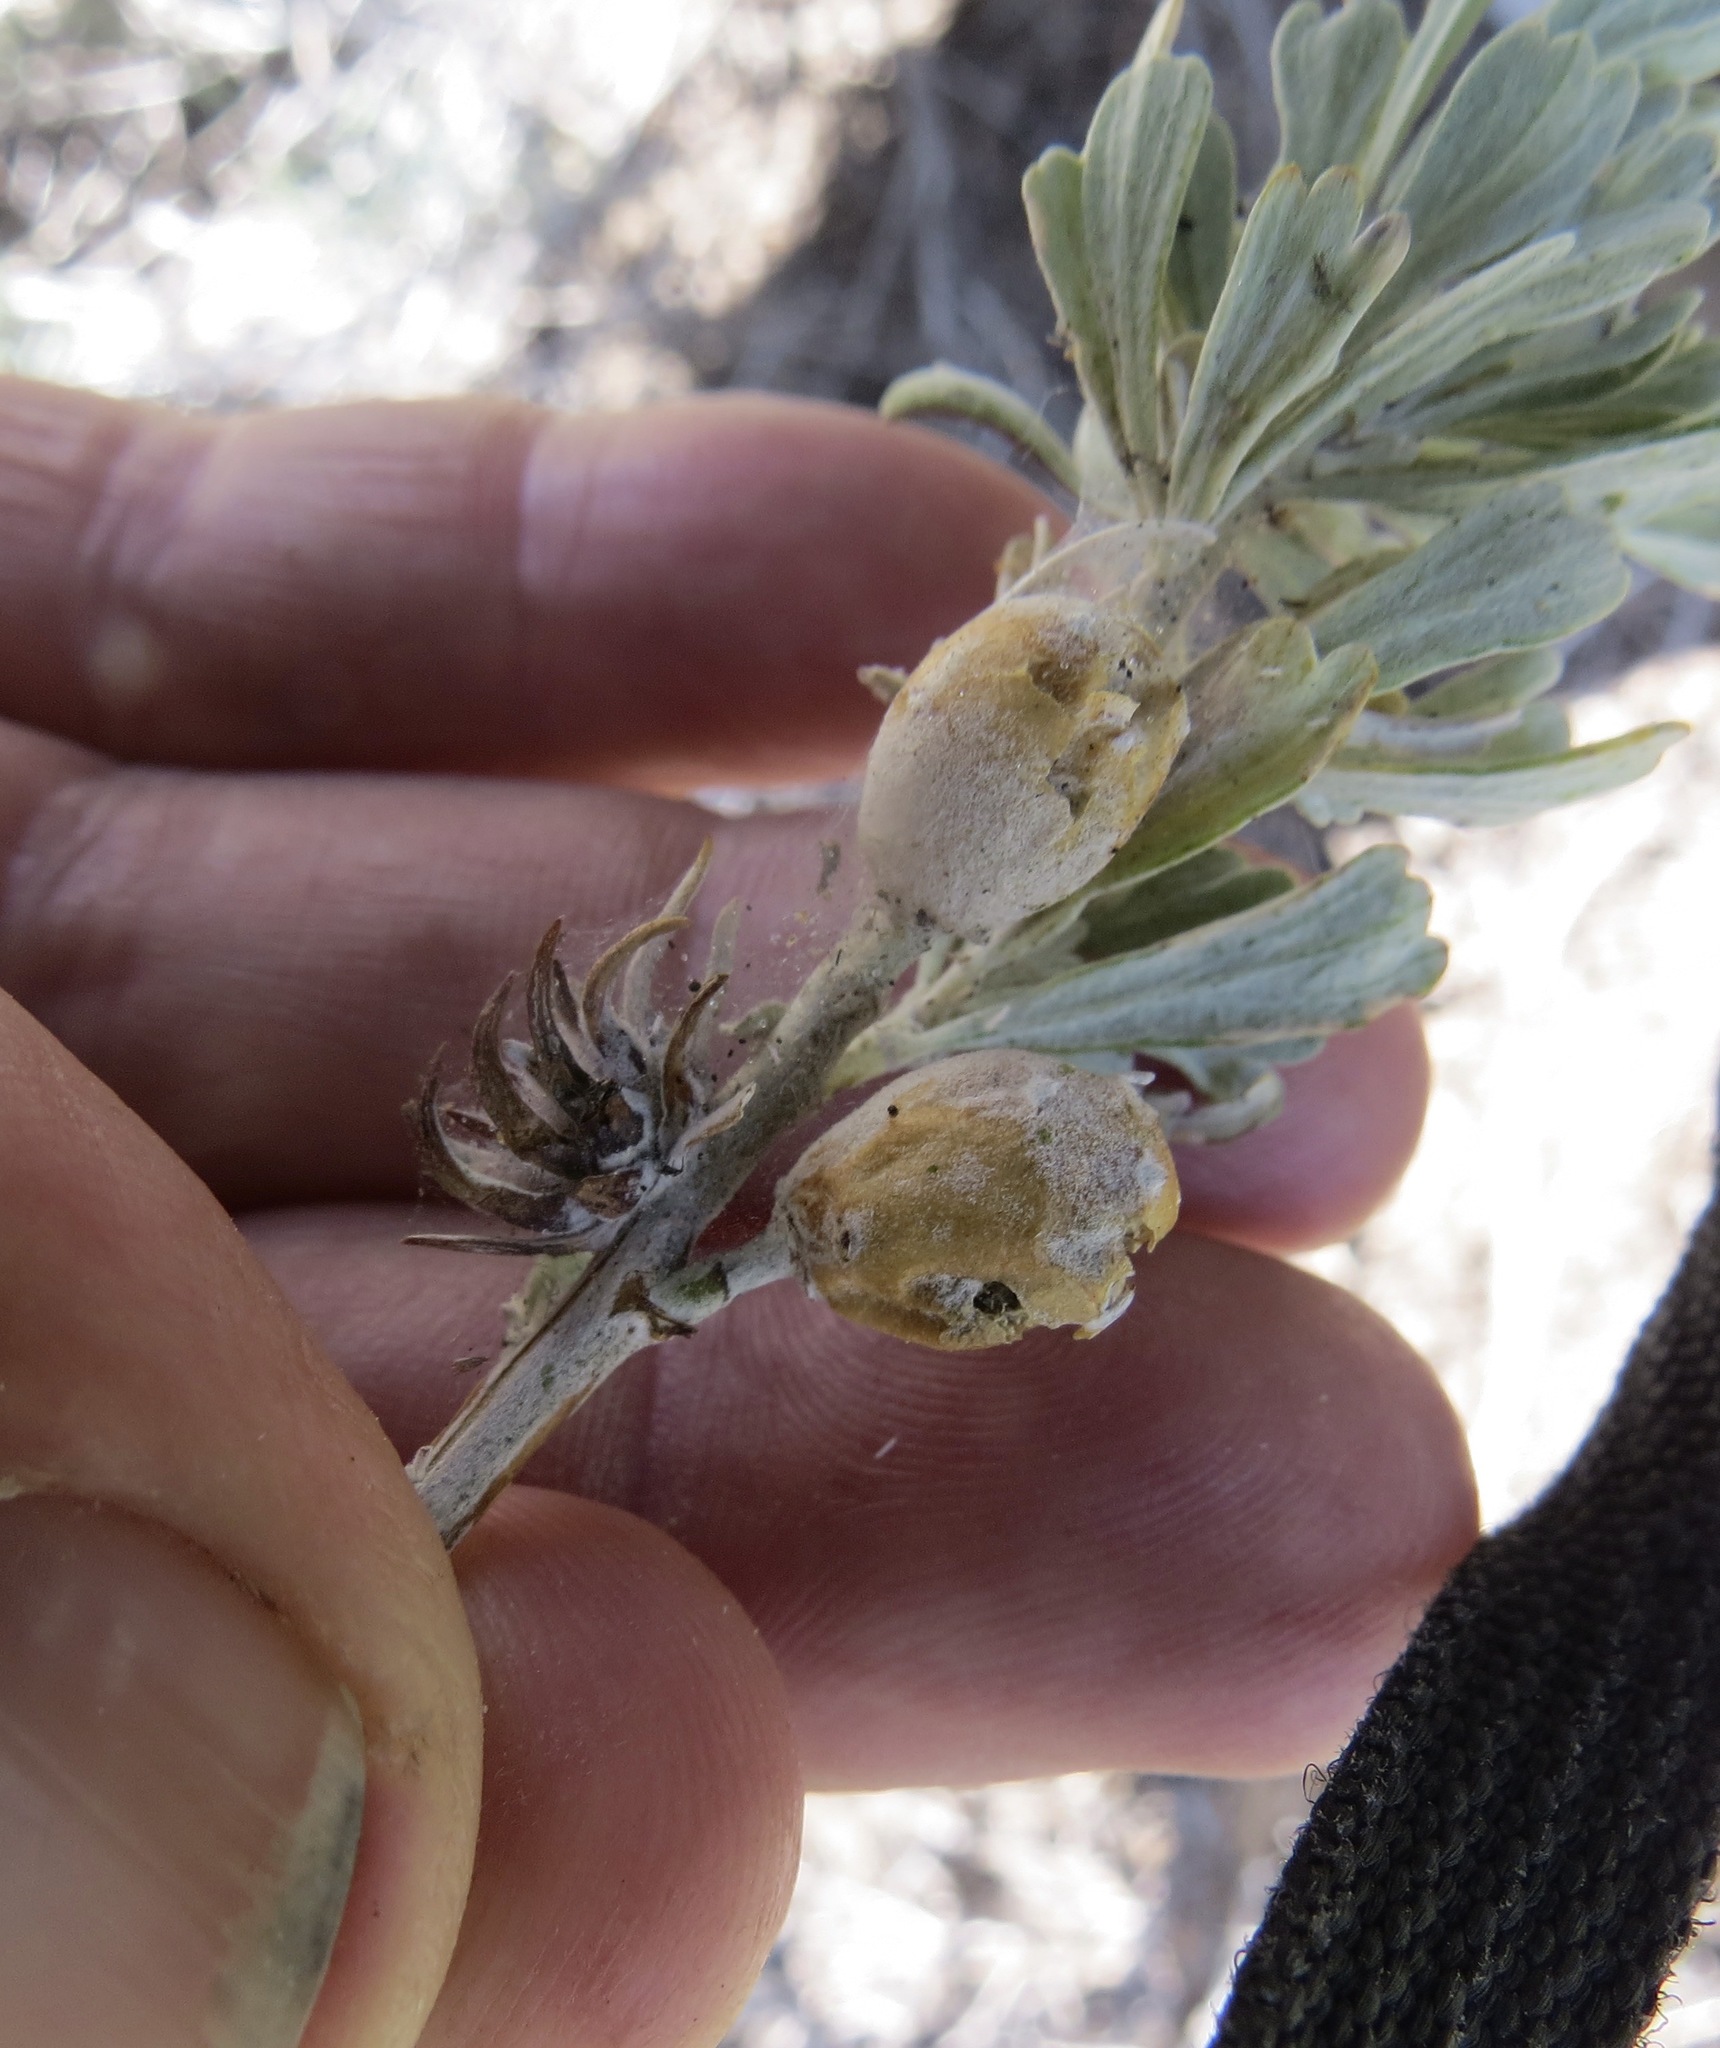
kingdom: Animalia
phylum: Arthropoda
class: Insecta
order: Diptera
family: Cecidomyiidae
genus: Rhopalomyia
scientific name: Rhopalomyia obovata
